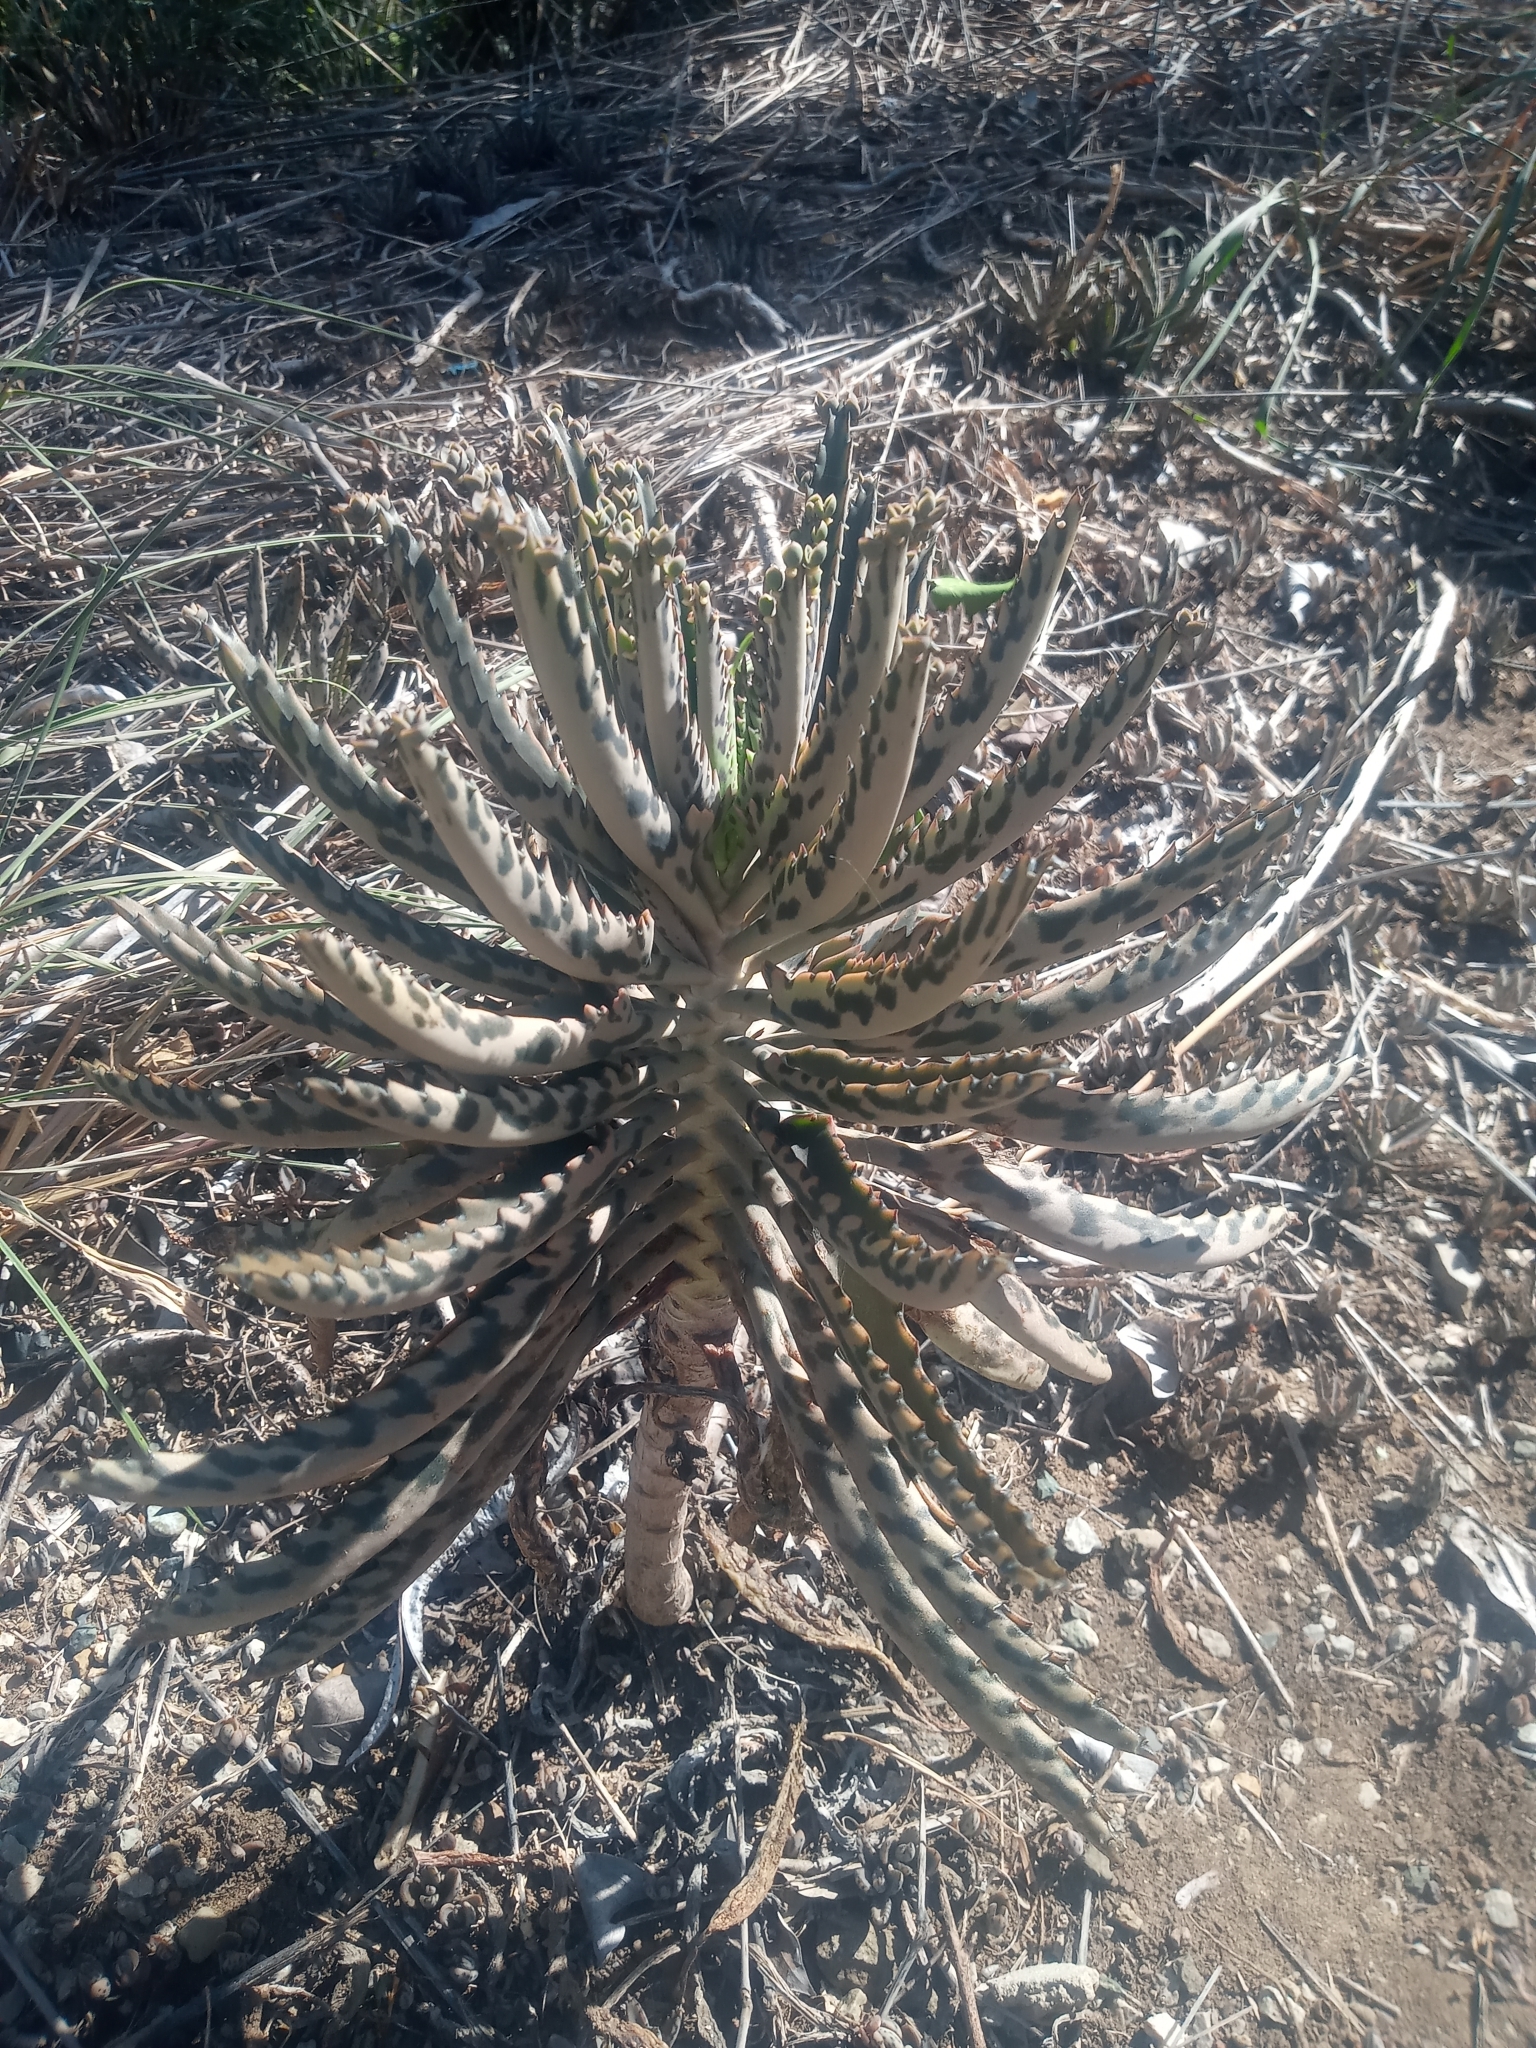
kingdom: Plantae
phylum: Tracheophyta
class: Magnoliopsida
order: Saxifragales
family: Crassulaceae
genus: Kalanchoe
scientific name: Kalanchoe houghtonii
